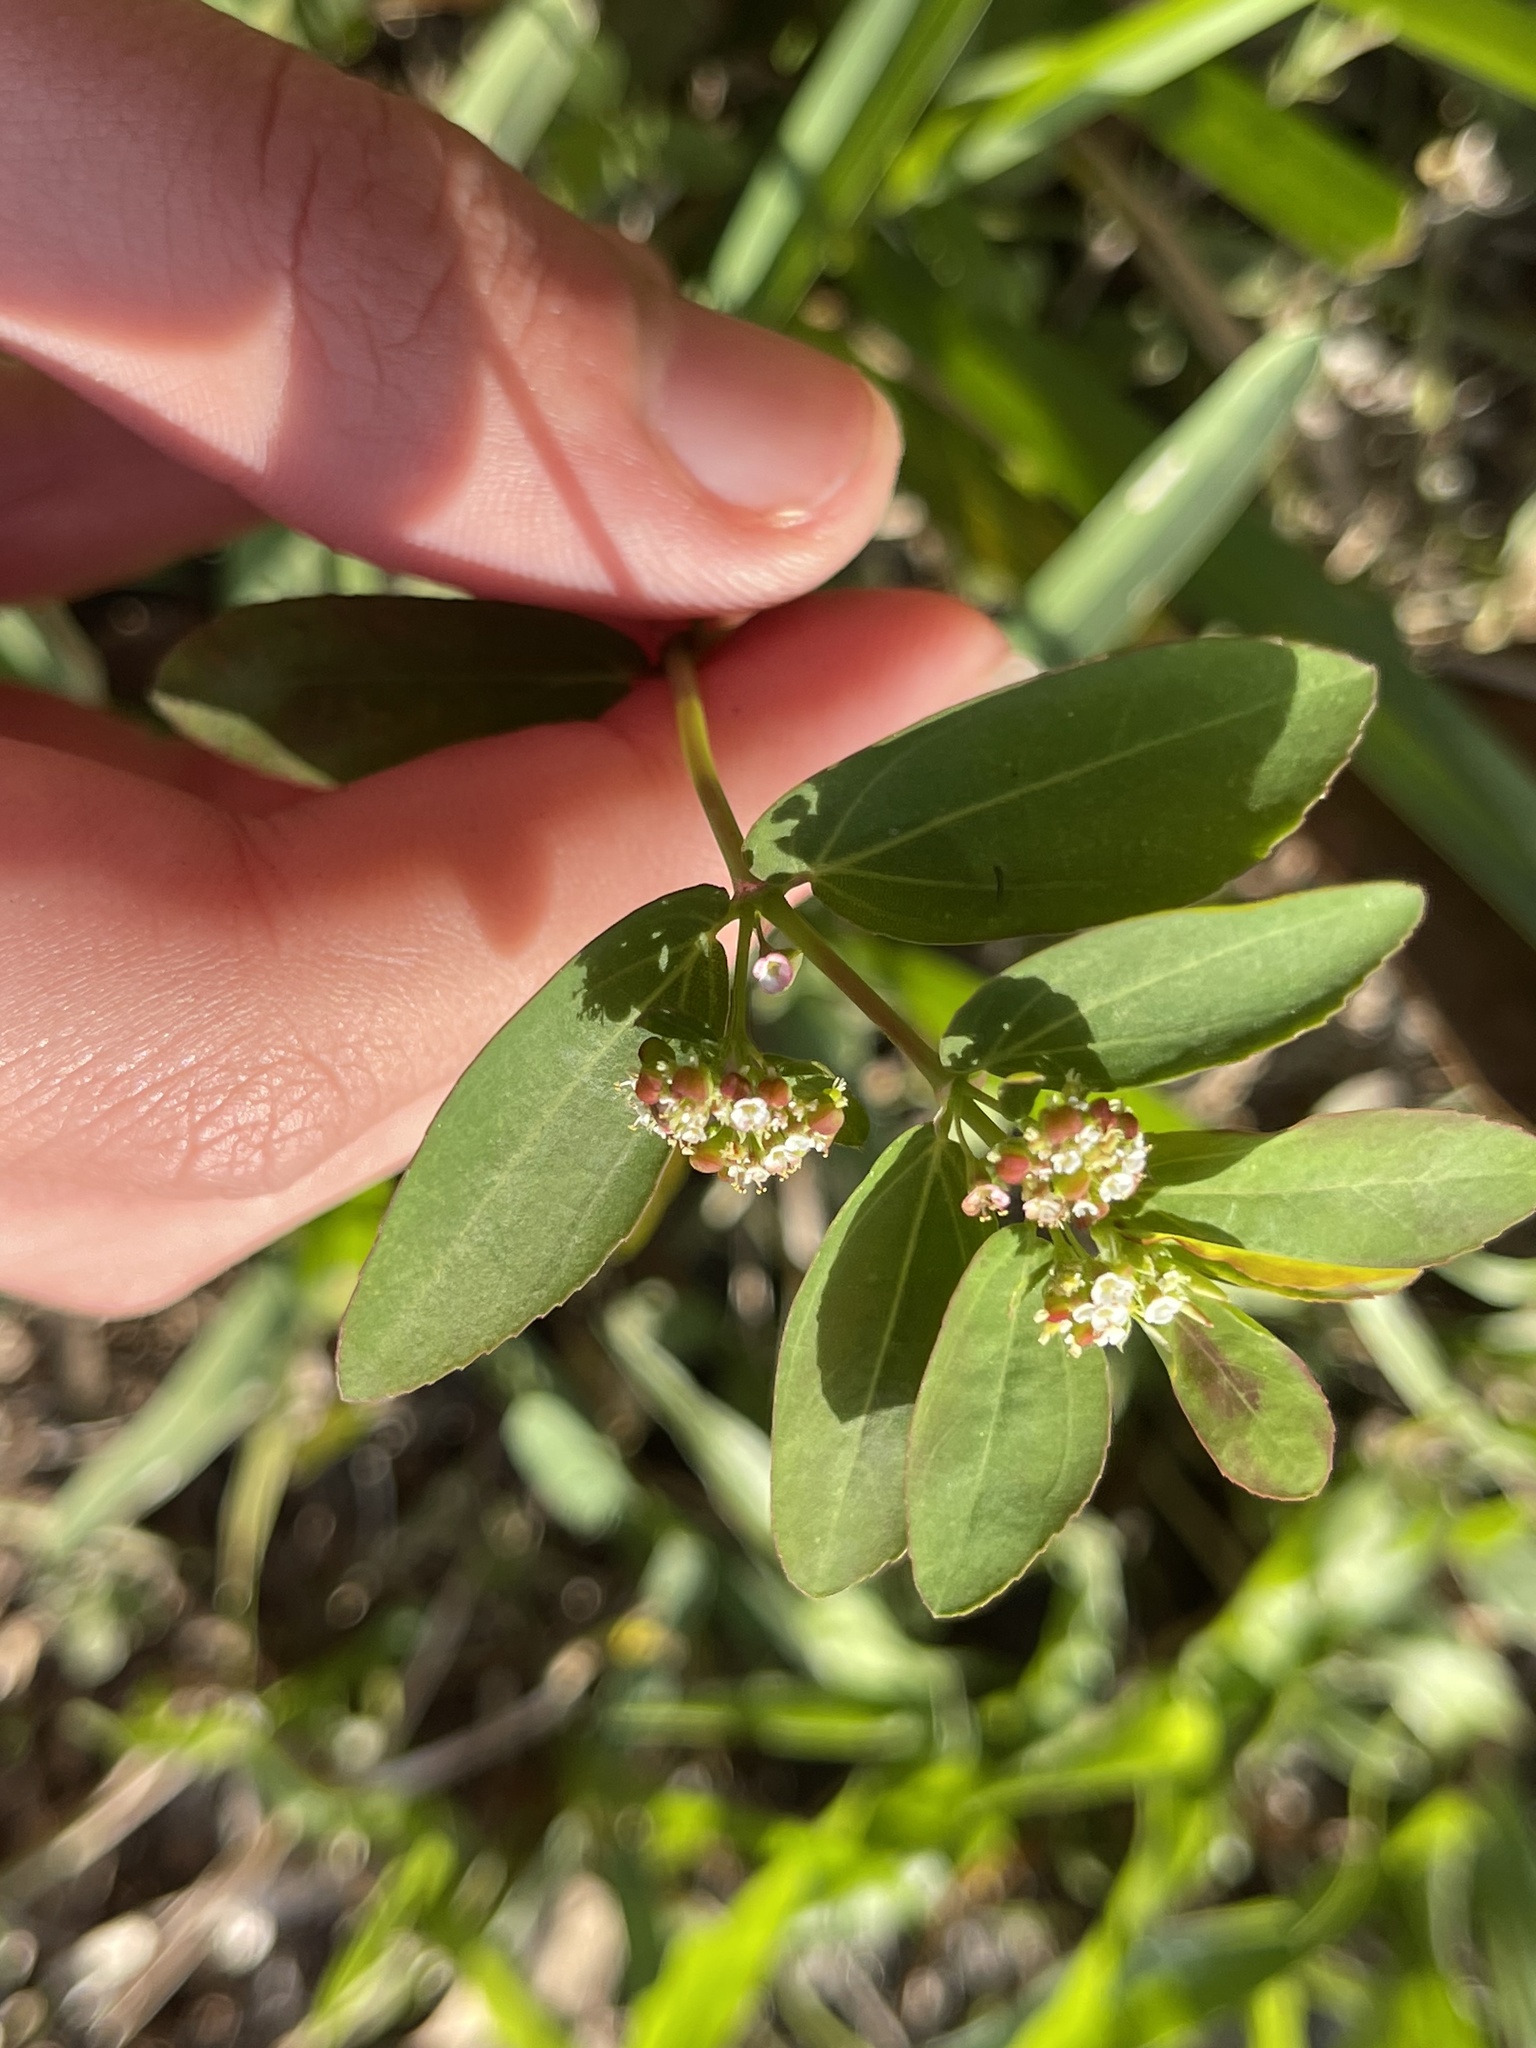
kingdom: Plantae
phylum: Tracheophyta
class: Magnoliopsida
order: Malpighiales
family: Euphorbiaceae
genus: Euphorbia
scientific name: Euphorbia hypericifolia
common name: Graceful sandmat
